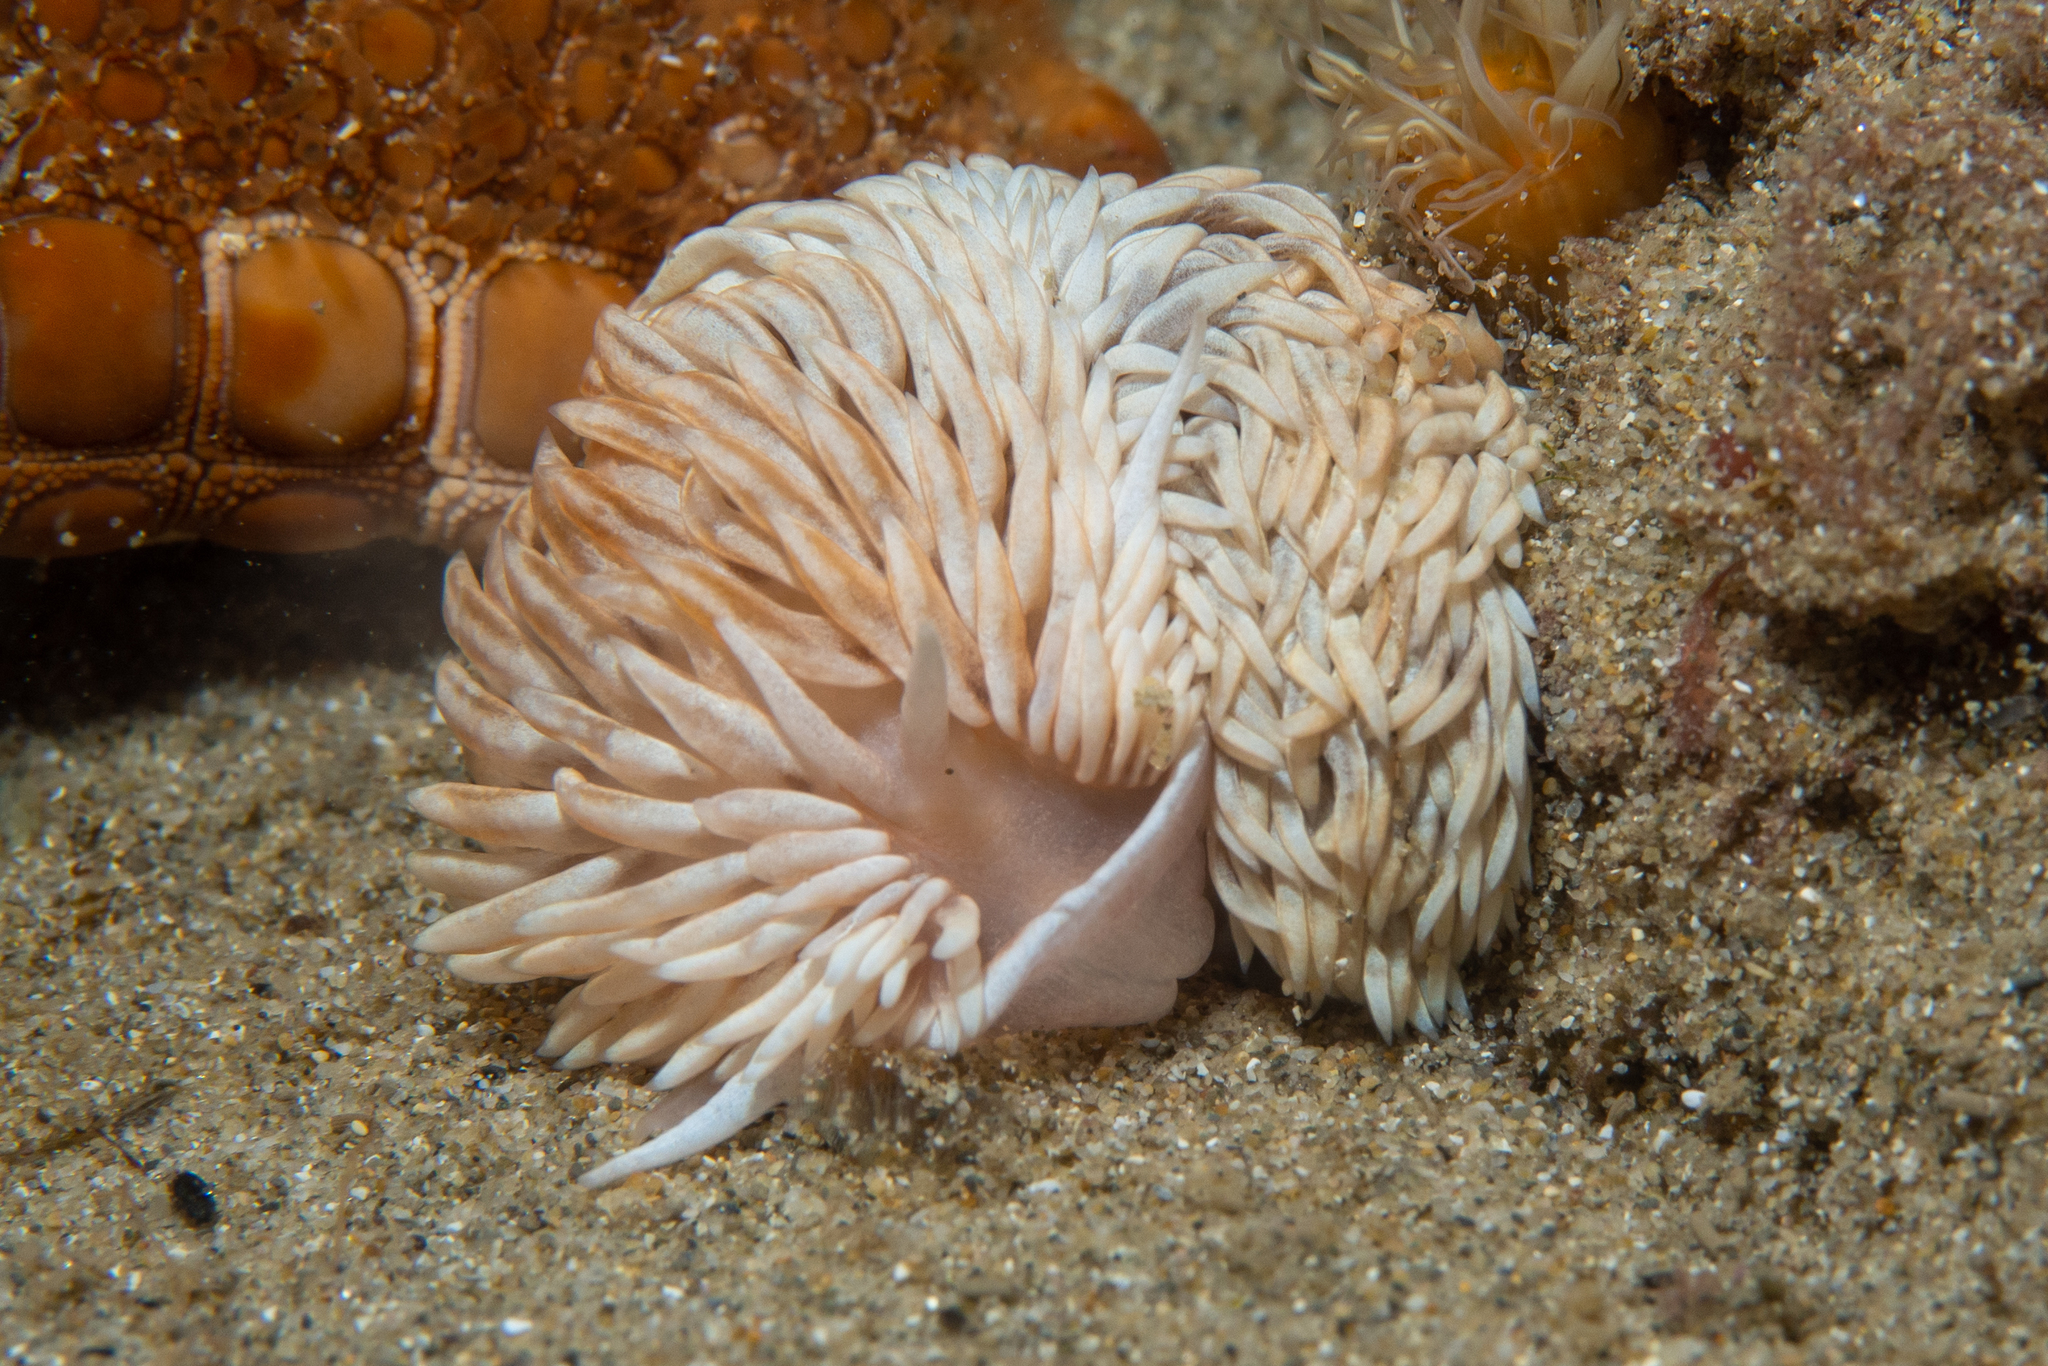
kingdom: Animalia
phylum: Mollusca
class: Gastropoda
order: Nudibranchia
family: Aeolidiidae
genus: Aeolidiella
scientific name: Aeolidiella drusilla
